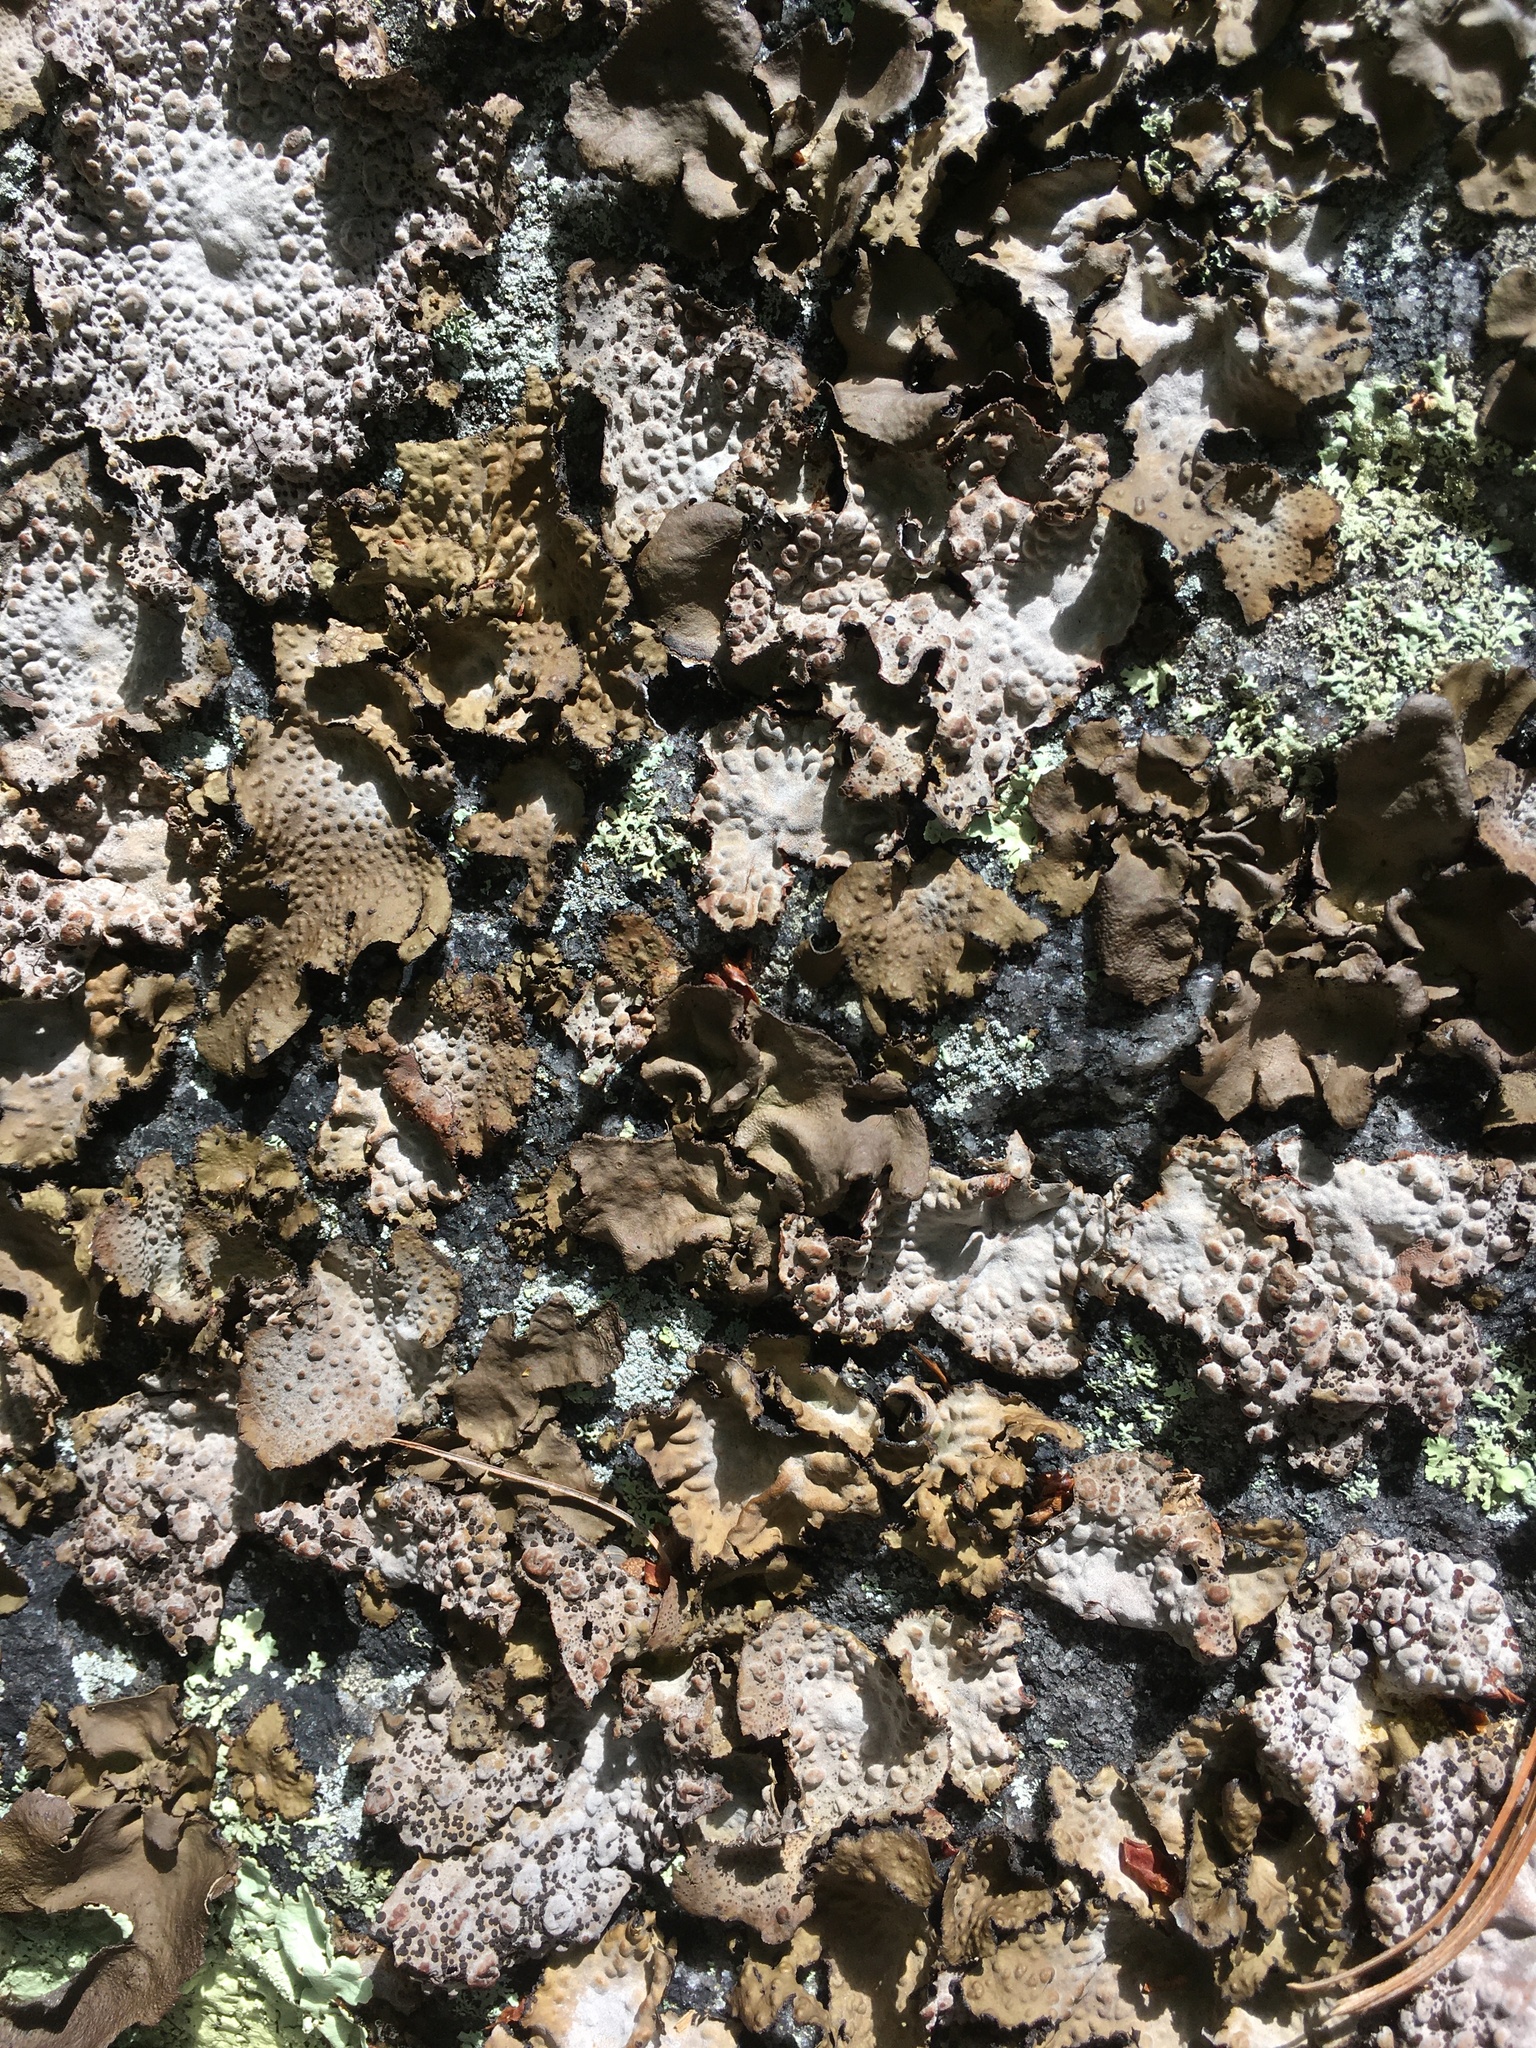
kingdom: Fungi
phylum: Ascomycota
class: Lecanoromycetes
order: Umbilicariales
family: Umbilicariaceae
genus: Lasallia
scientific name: Lasallia papulosa
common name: Common toadskin lichen
